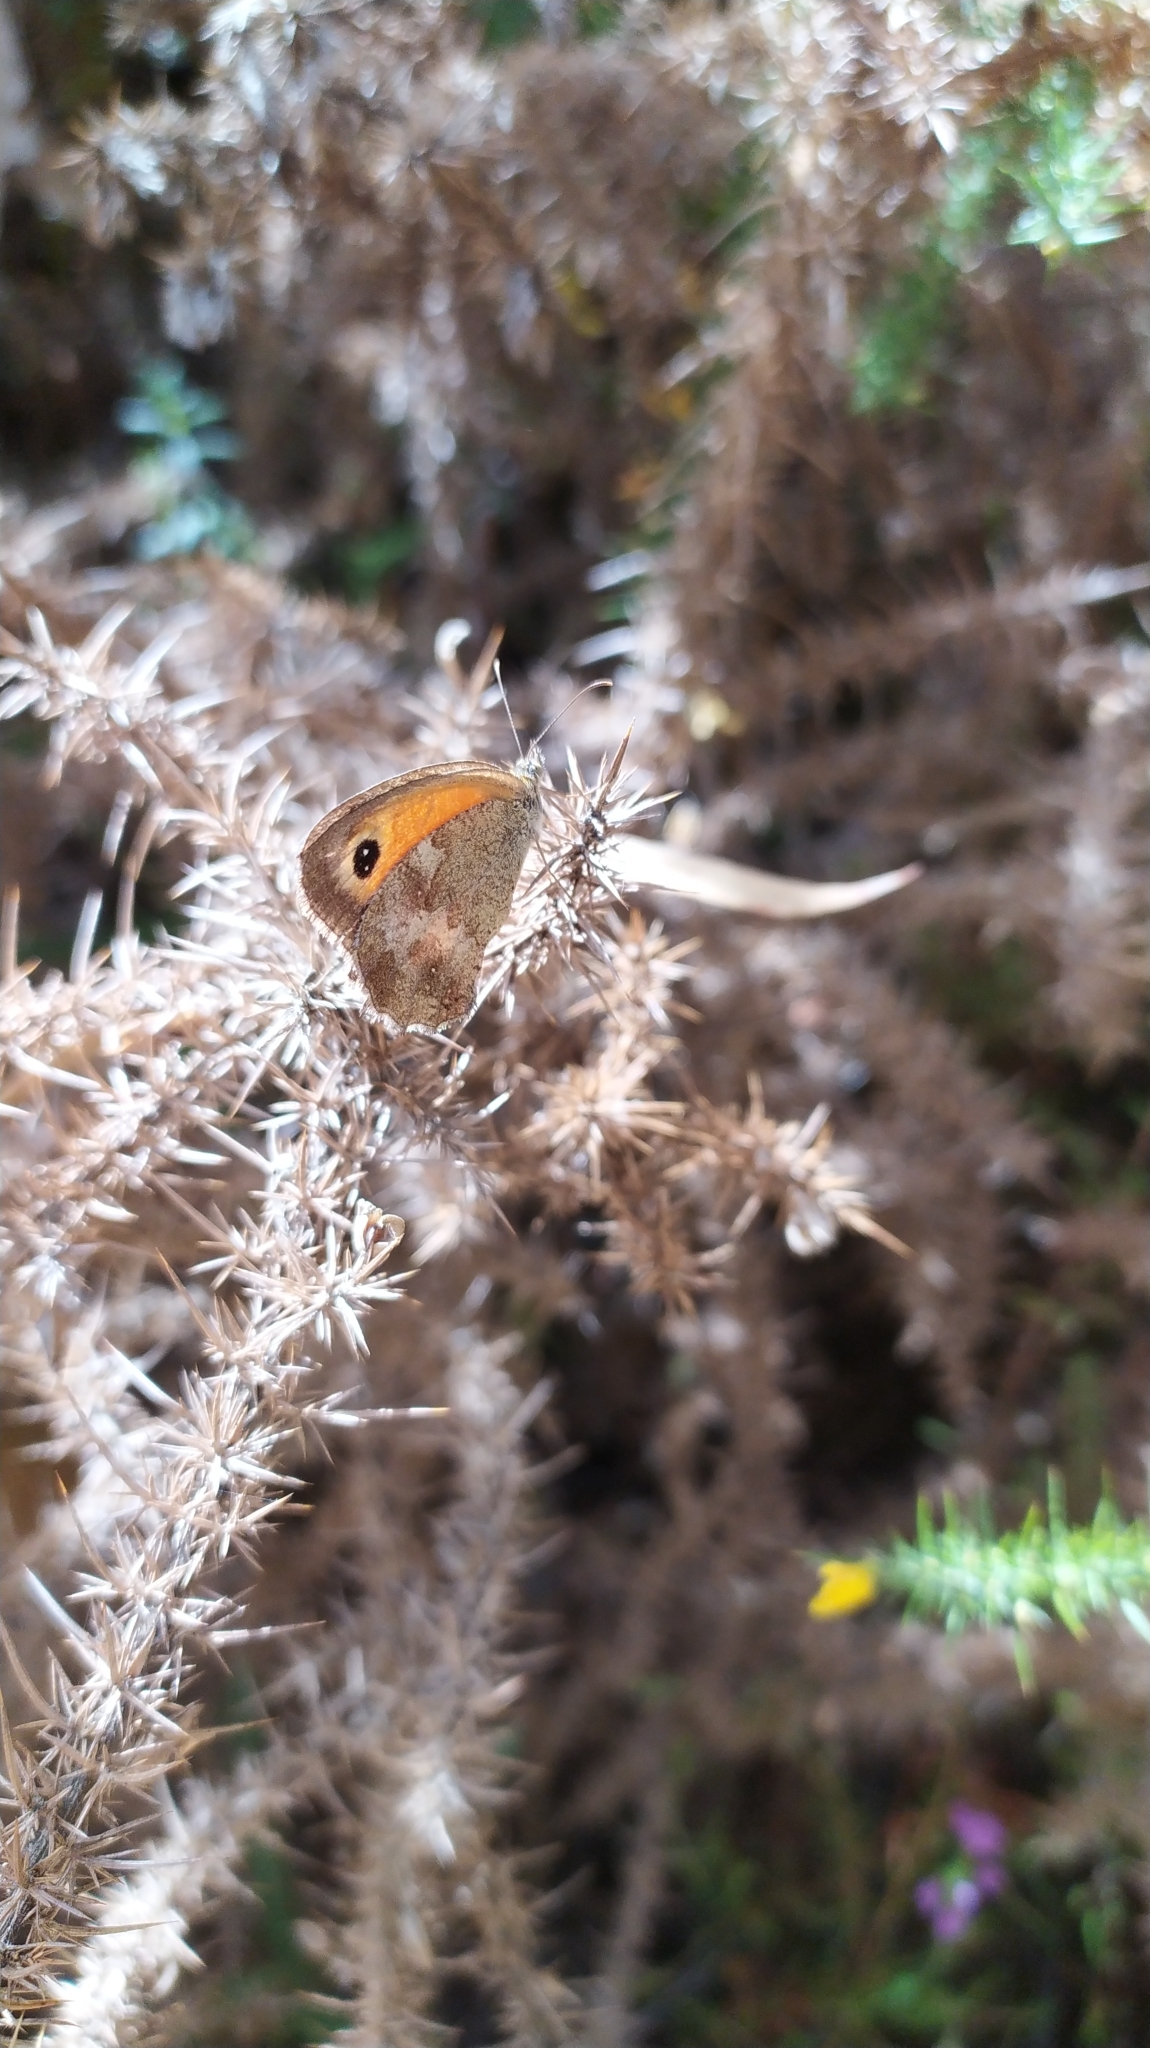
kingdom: Animalia
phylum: Arthropoda
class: Insecta
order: Lepidoptera
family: Nymphalidae
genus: Pyronia
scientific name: Pyronia cecilia
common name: Southern gatekeeper
